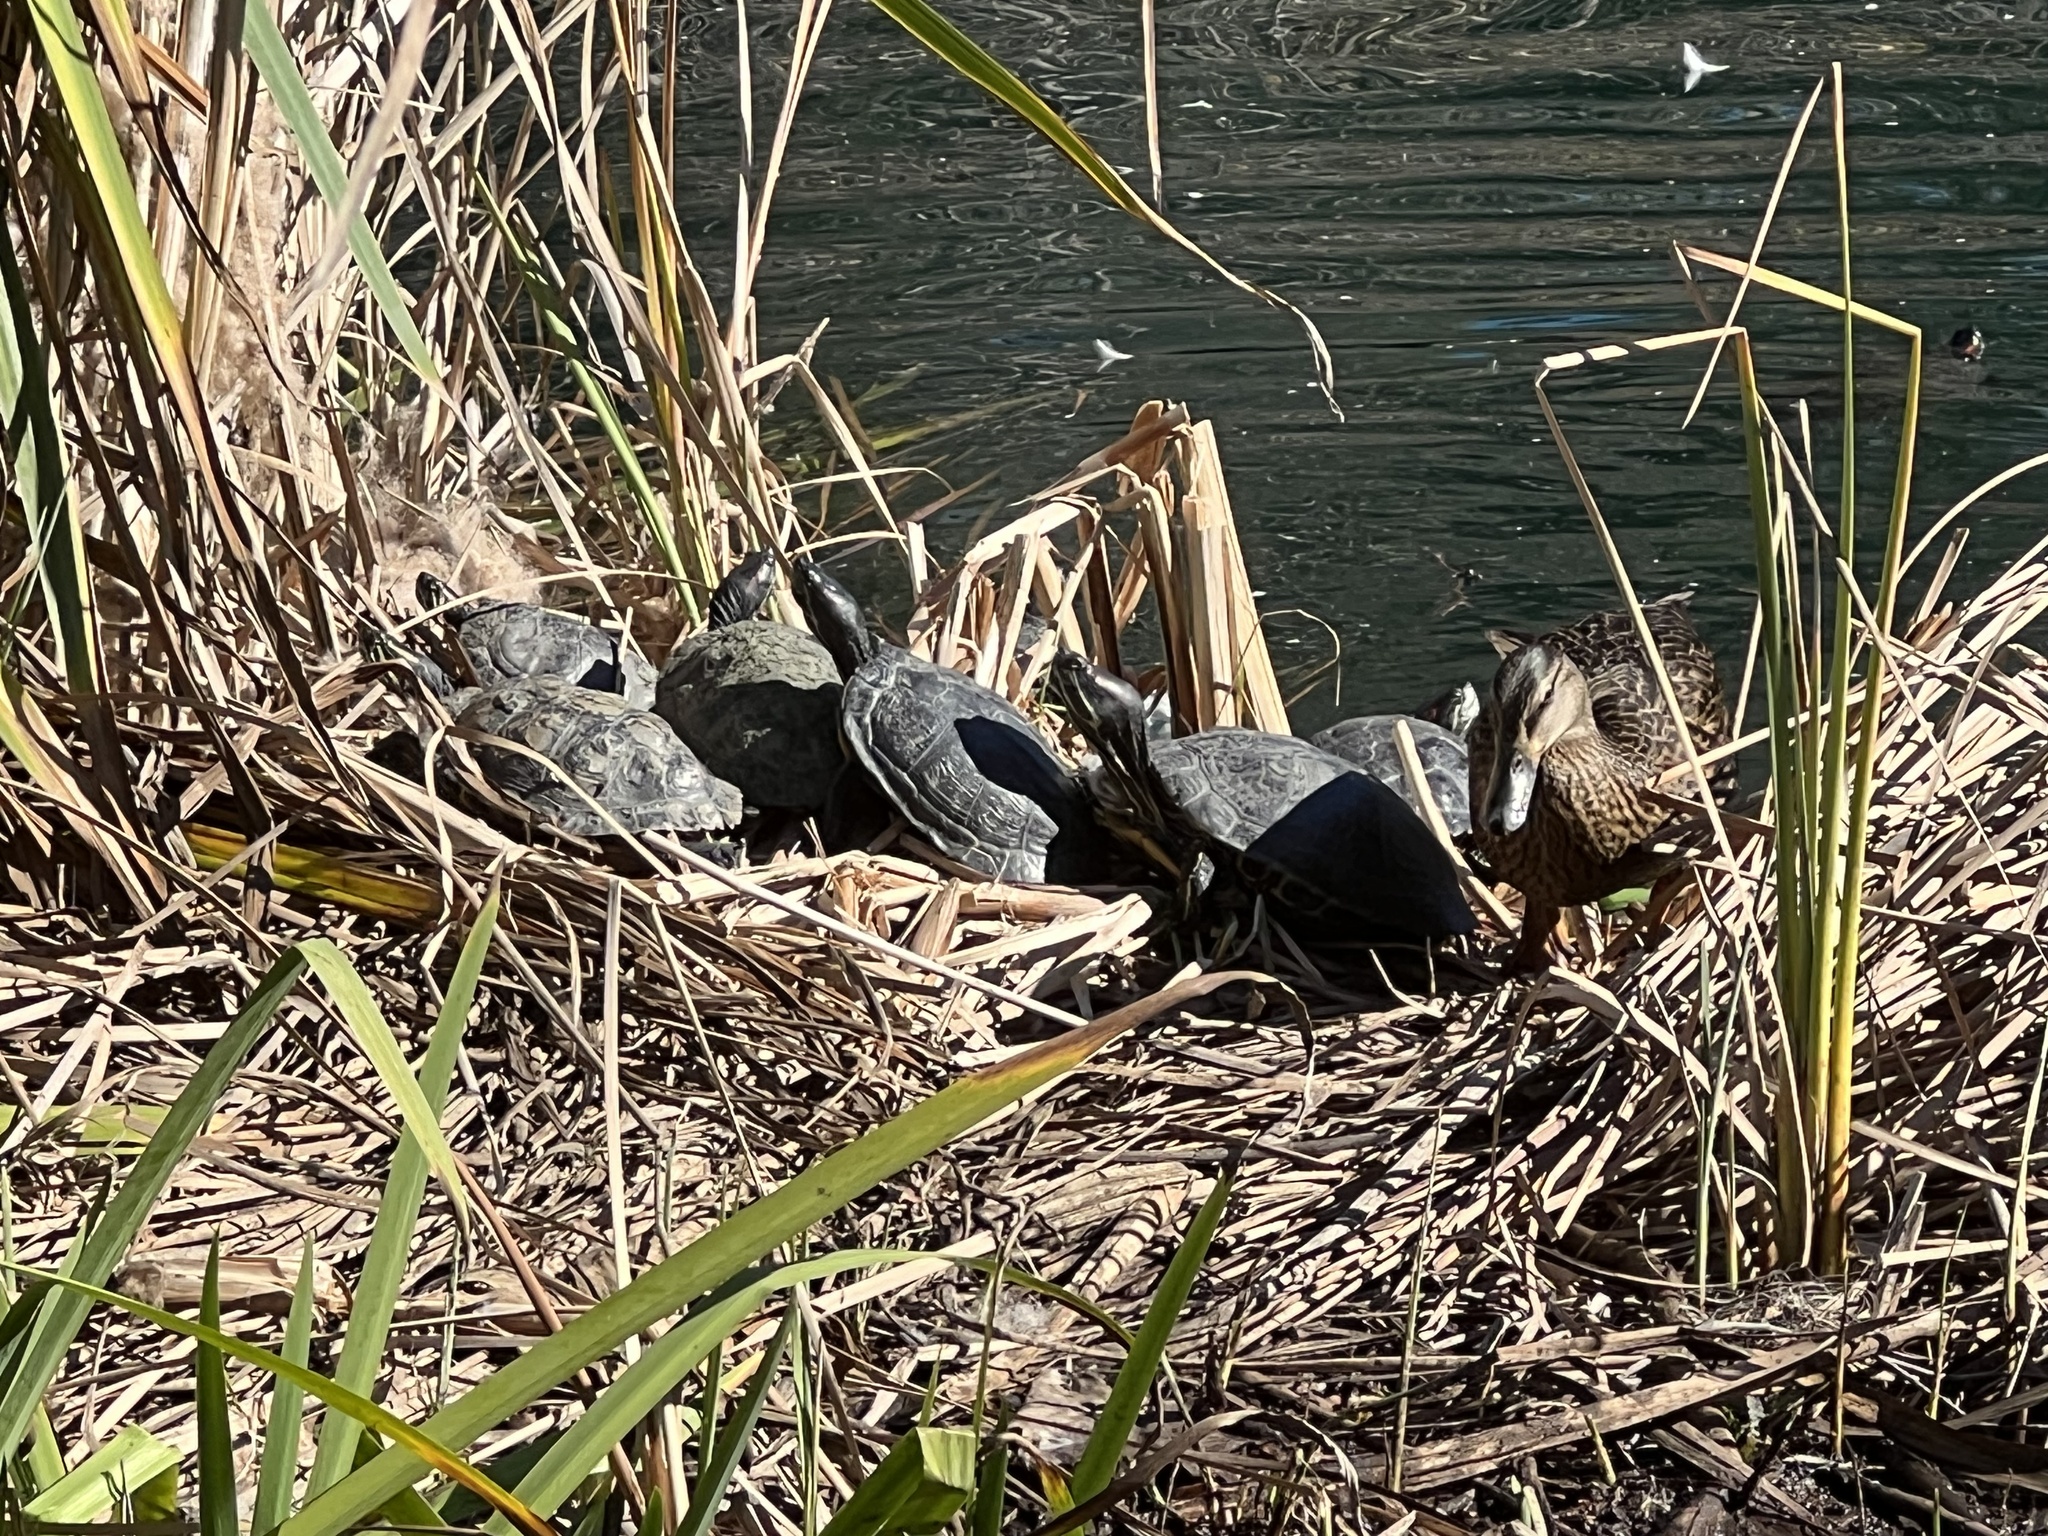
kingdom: Animalia
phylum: Chordata
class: Testudines
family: Emydidae
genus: Trachemys
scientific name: Trachemys scripta
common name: Slider
